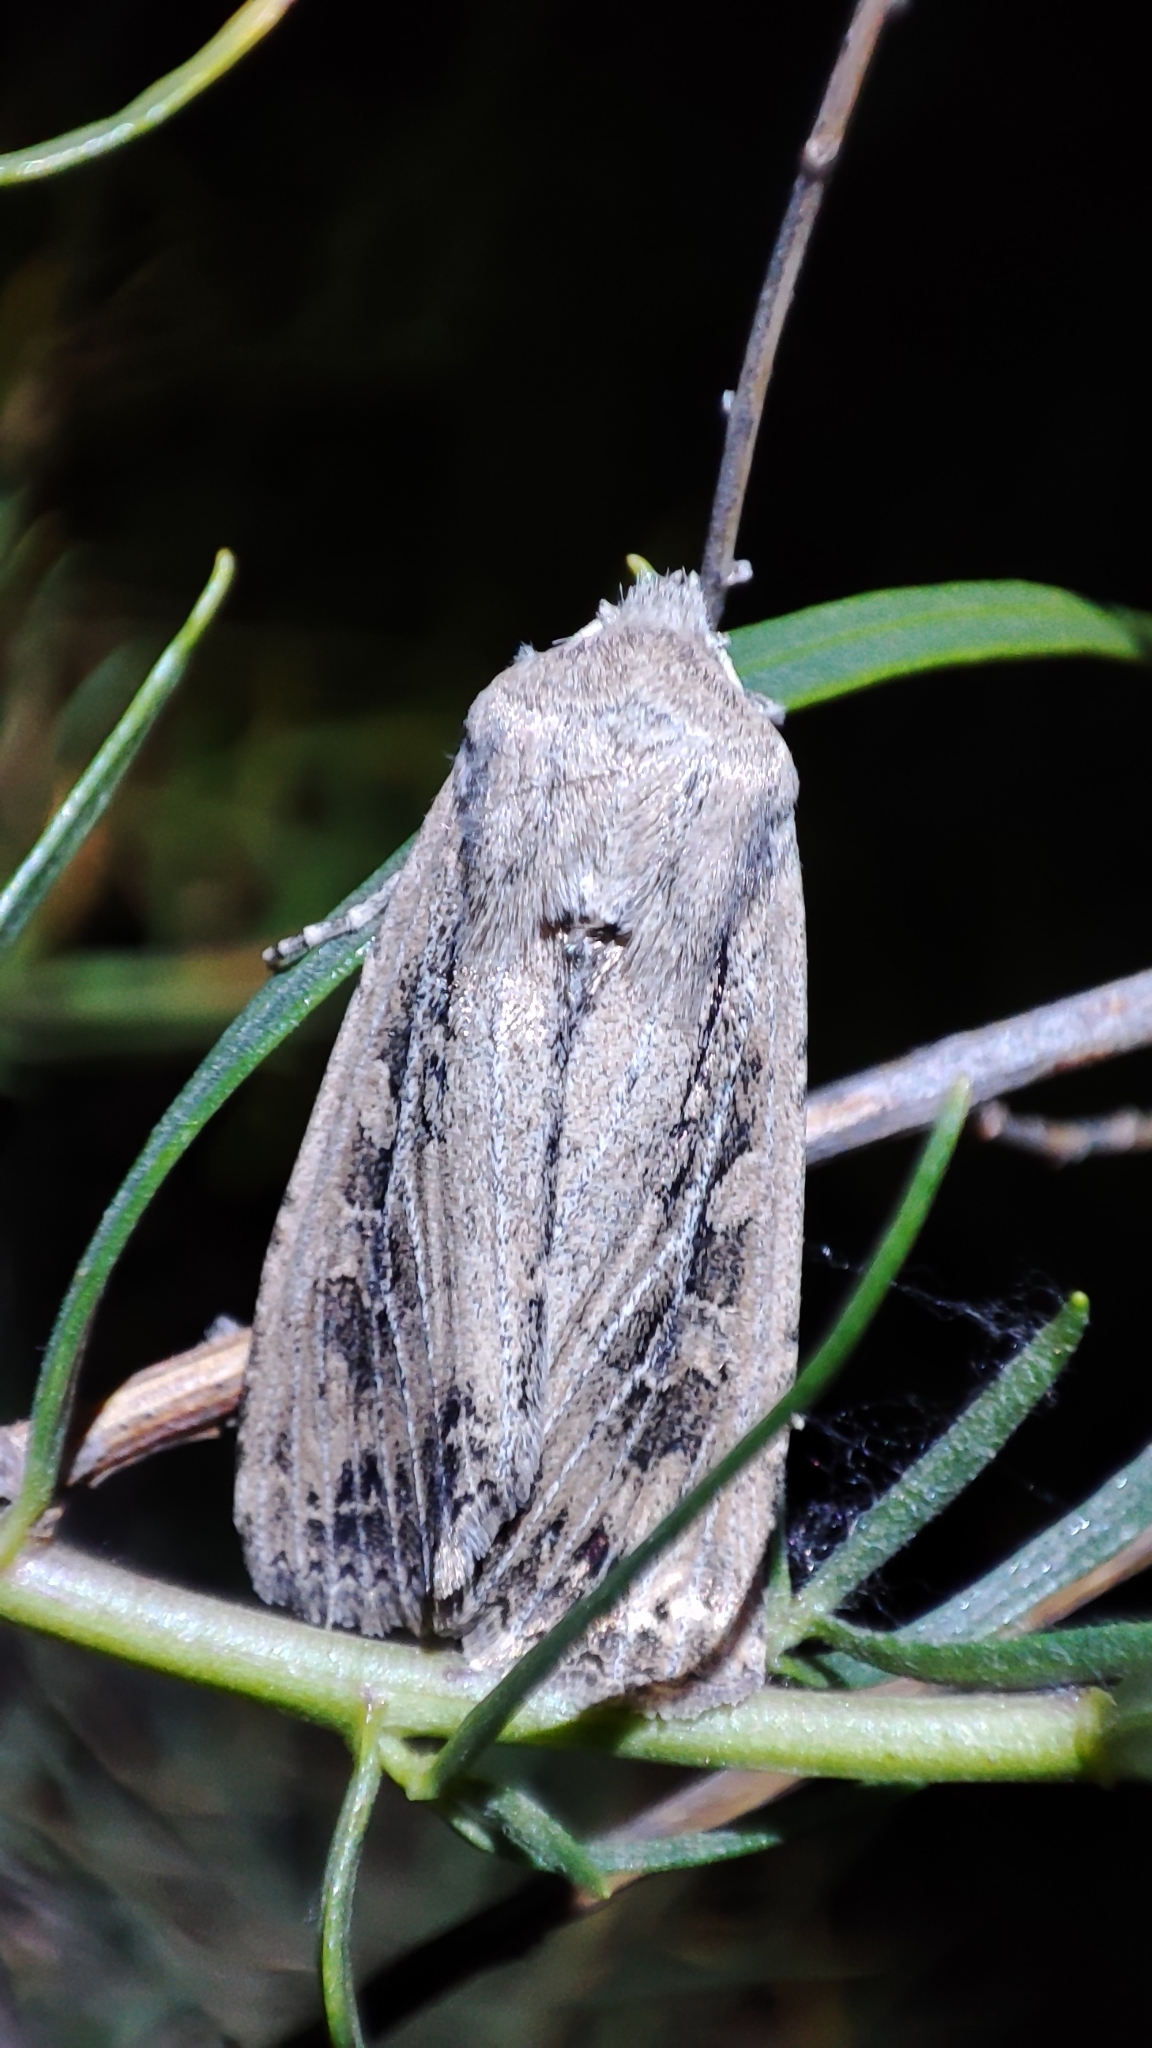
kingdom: Animalia
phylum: Arthropoda
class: Insecta
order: Lepidoptera
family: Noctuidae
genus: Fabula
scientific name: Fabula zollikoferi
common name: Scarce arches
